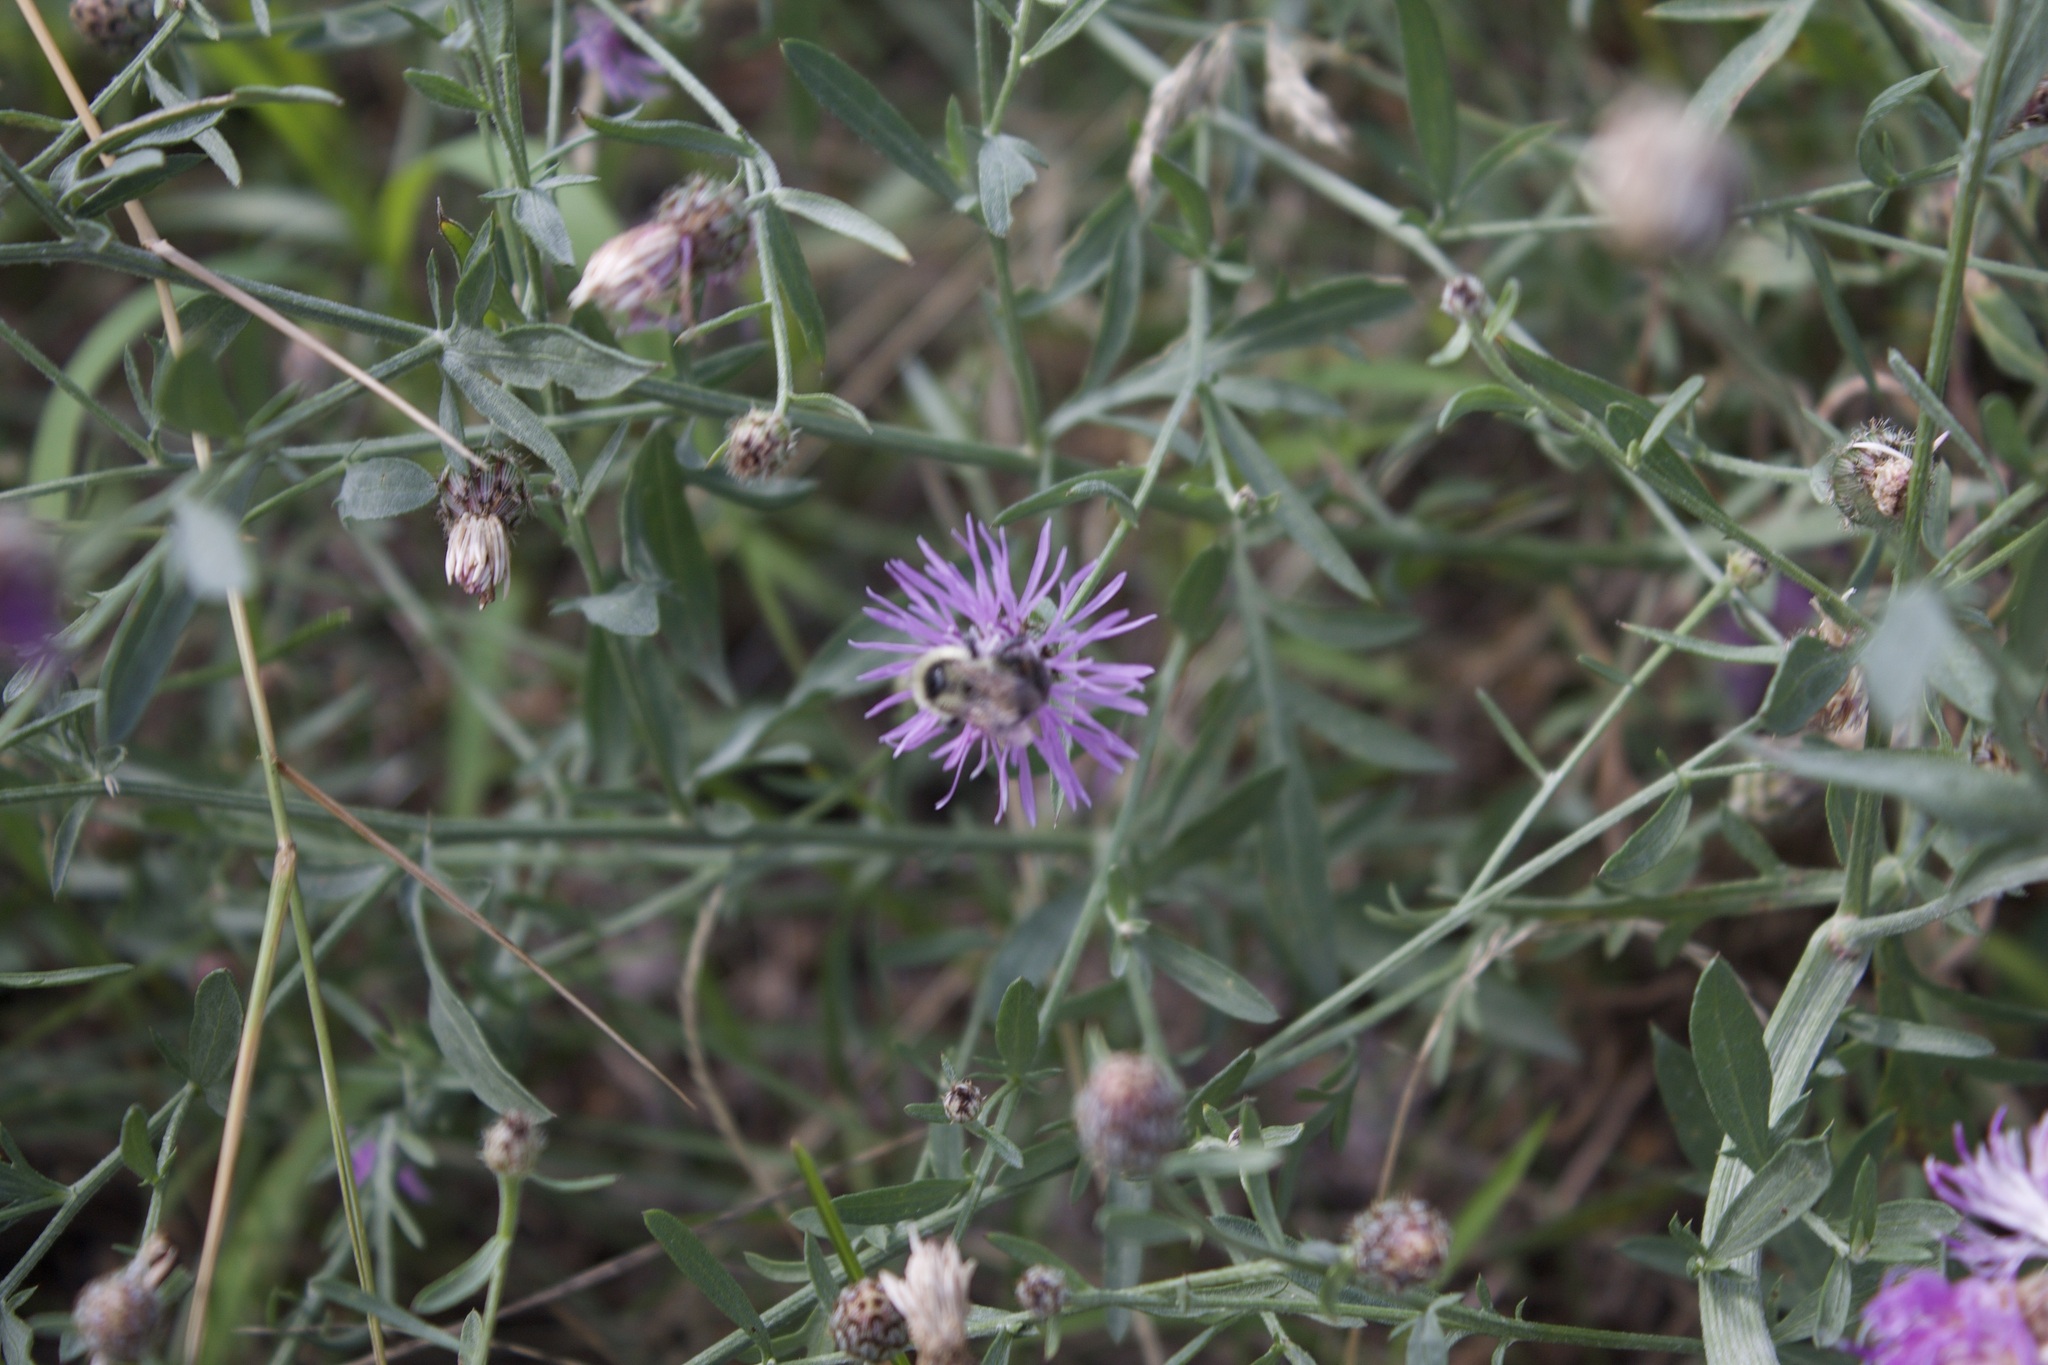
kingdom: Animalia
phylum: Arthropoda
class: Insecta
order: Hymenoptera
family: Apidae
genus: Bombus
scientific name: Bombus rufocinctus
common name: Red-belted bumble bee
